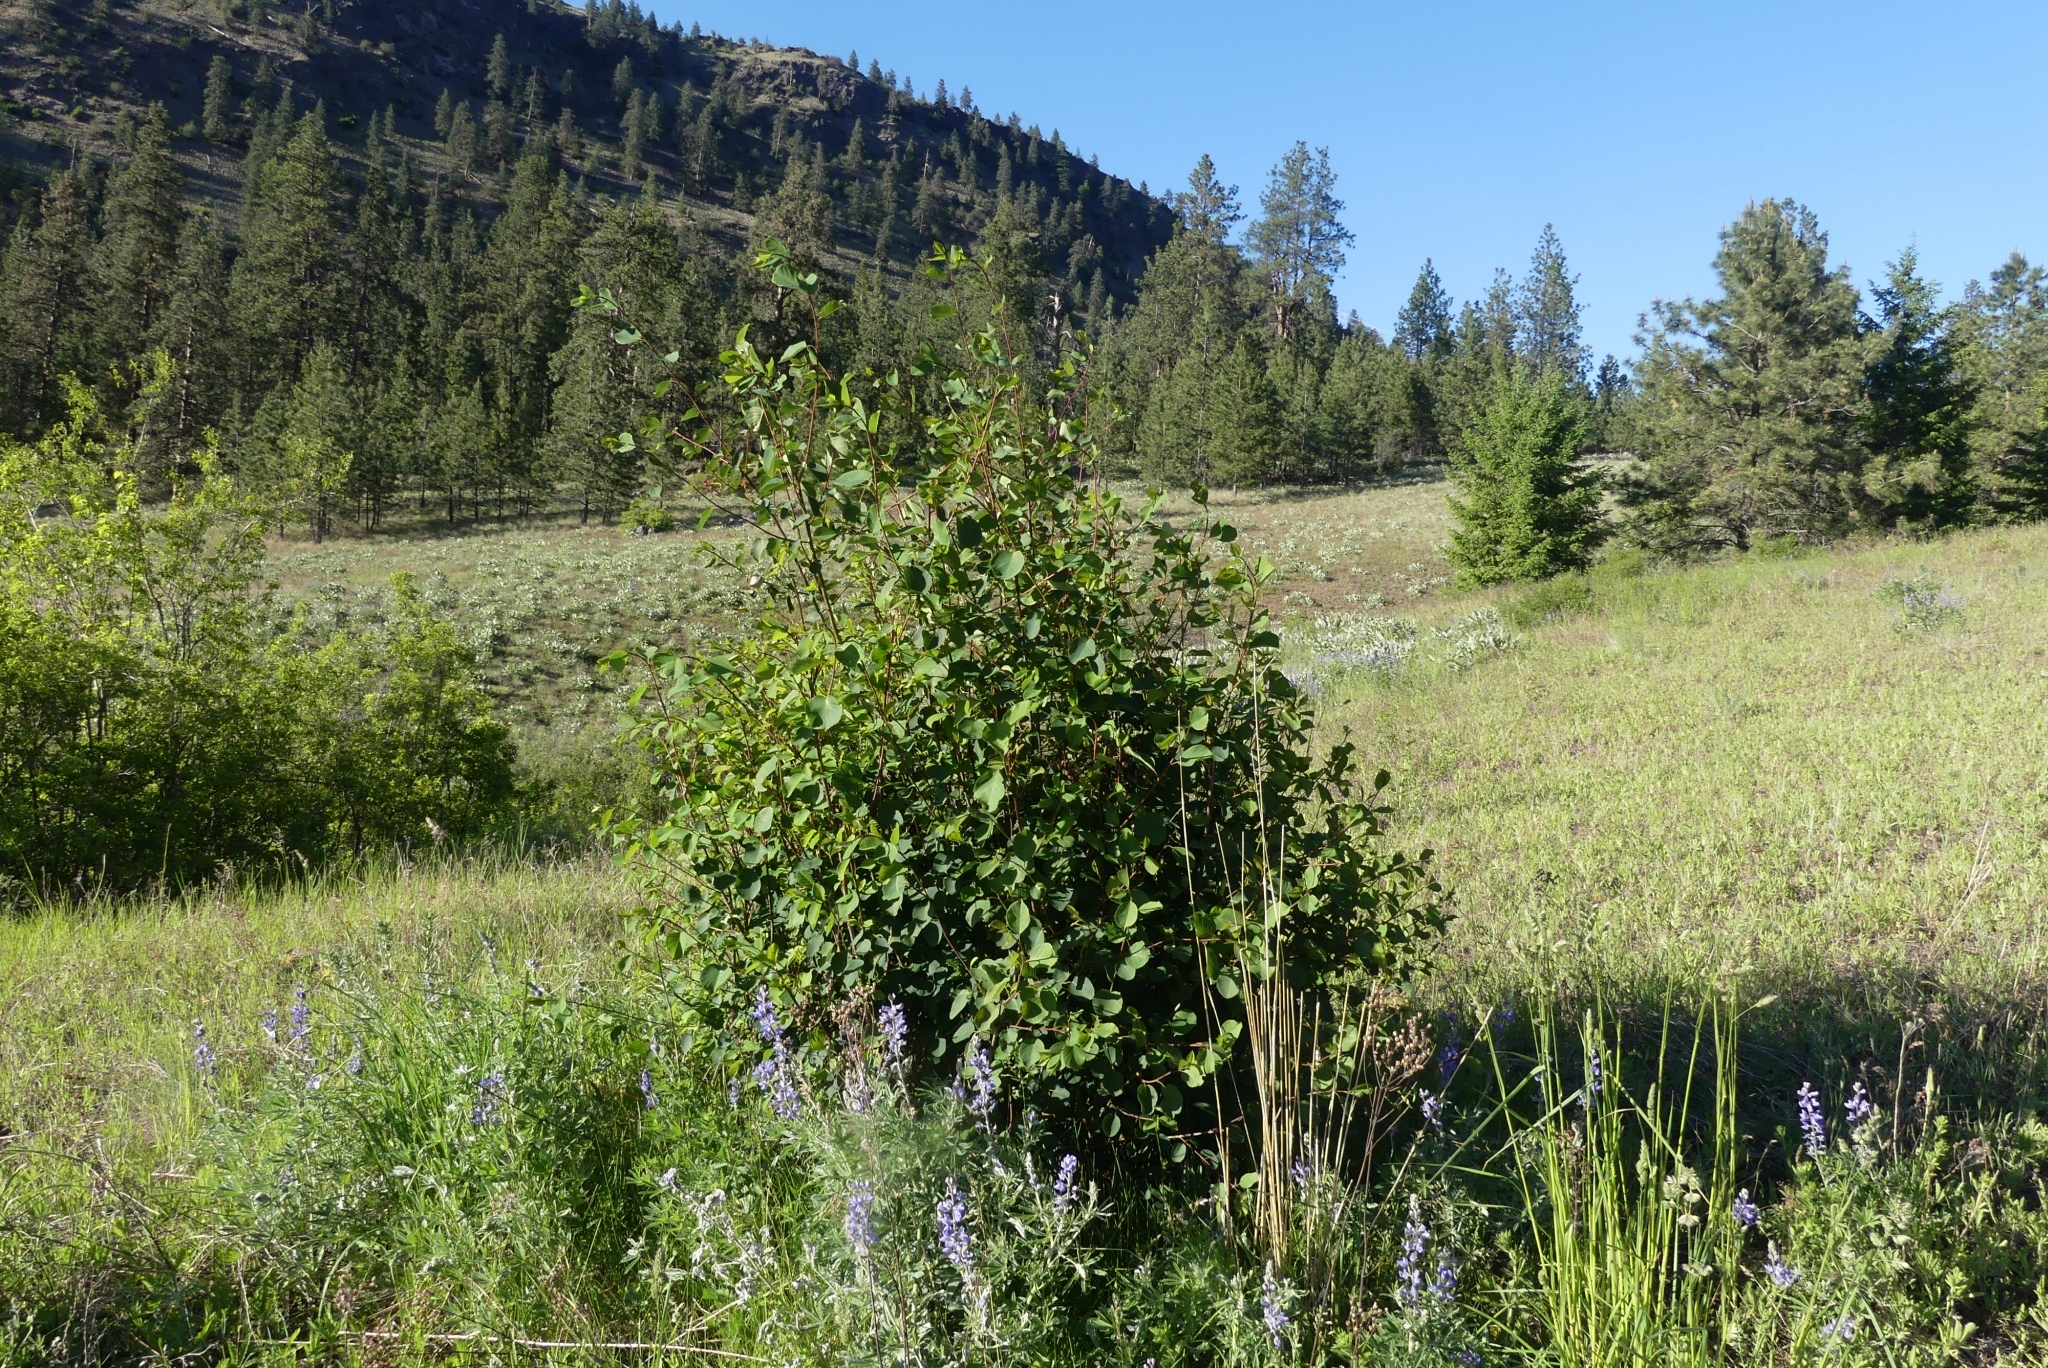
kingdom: Plantae
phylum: Tracheophyta
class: Magnoliopsida
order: Rosales
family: Rosaceae
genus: Amelanchier
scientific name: Amelanchier alnifolia
